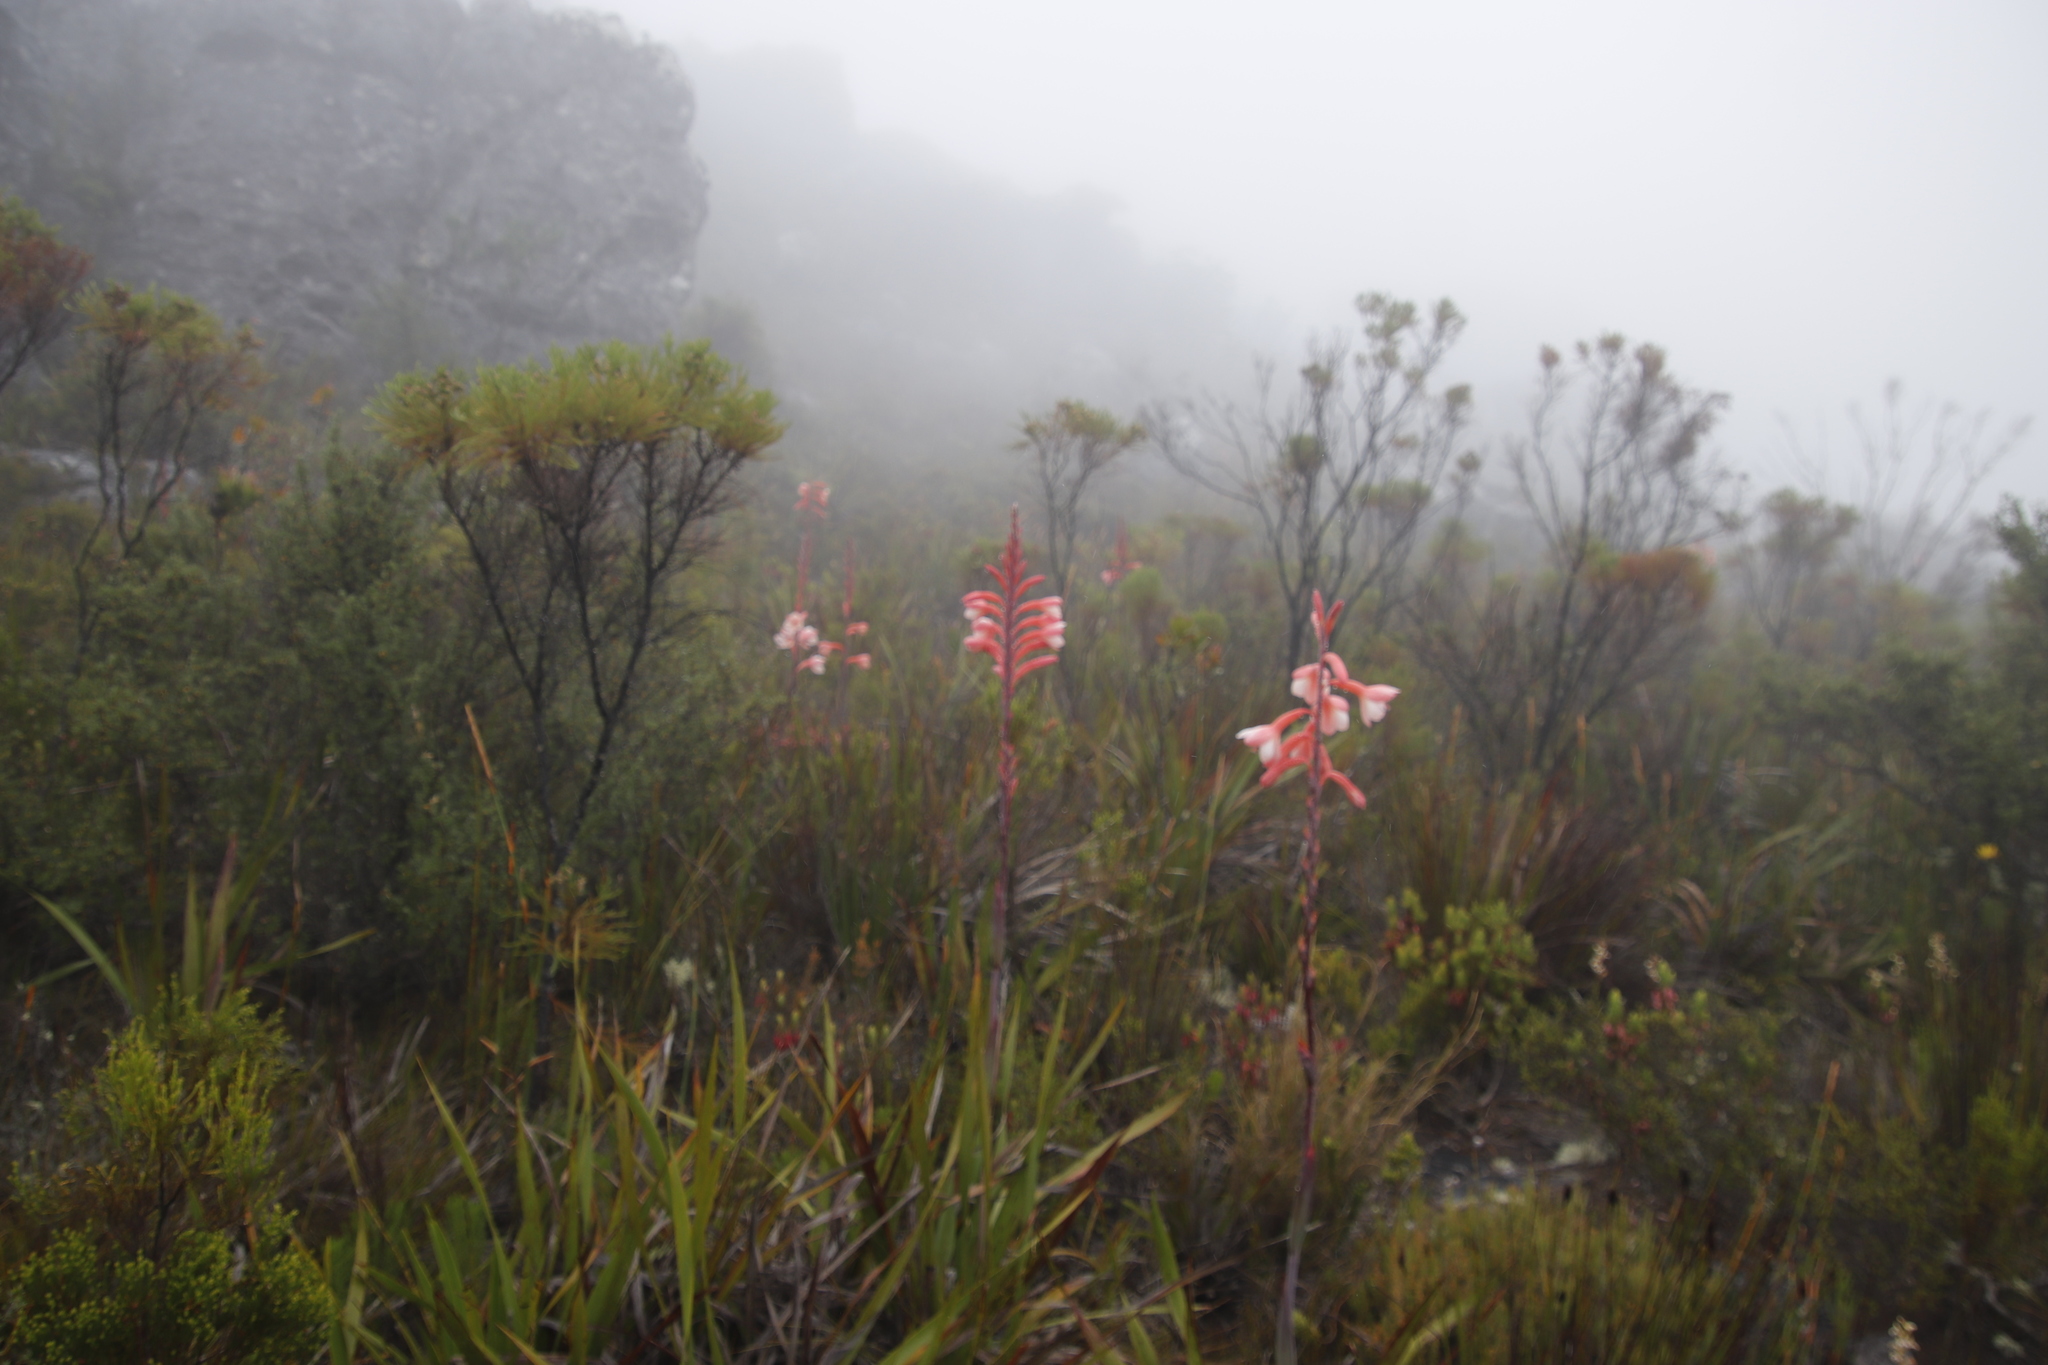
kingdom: Plantae
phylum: Tracheophyta
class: Liliopsida
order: Asparagales
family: Iridaceae
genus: Watsonia
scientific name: Watsonia tabularis
